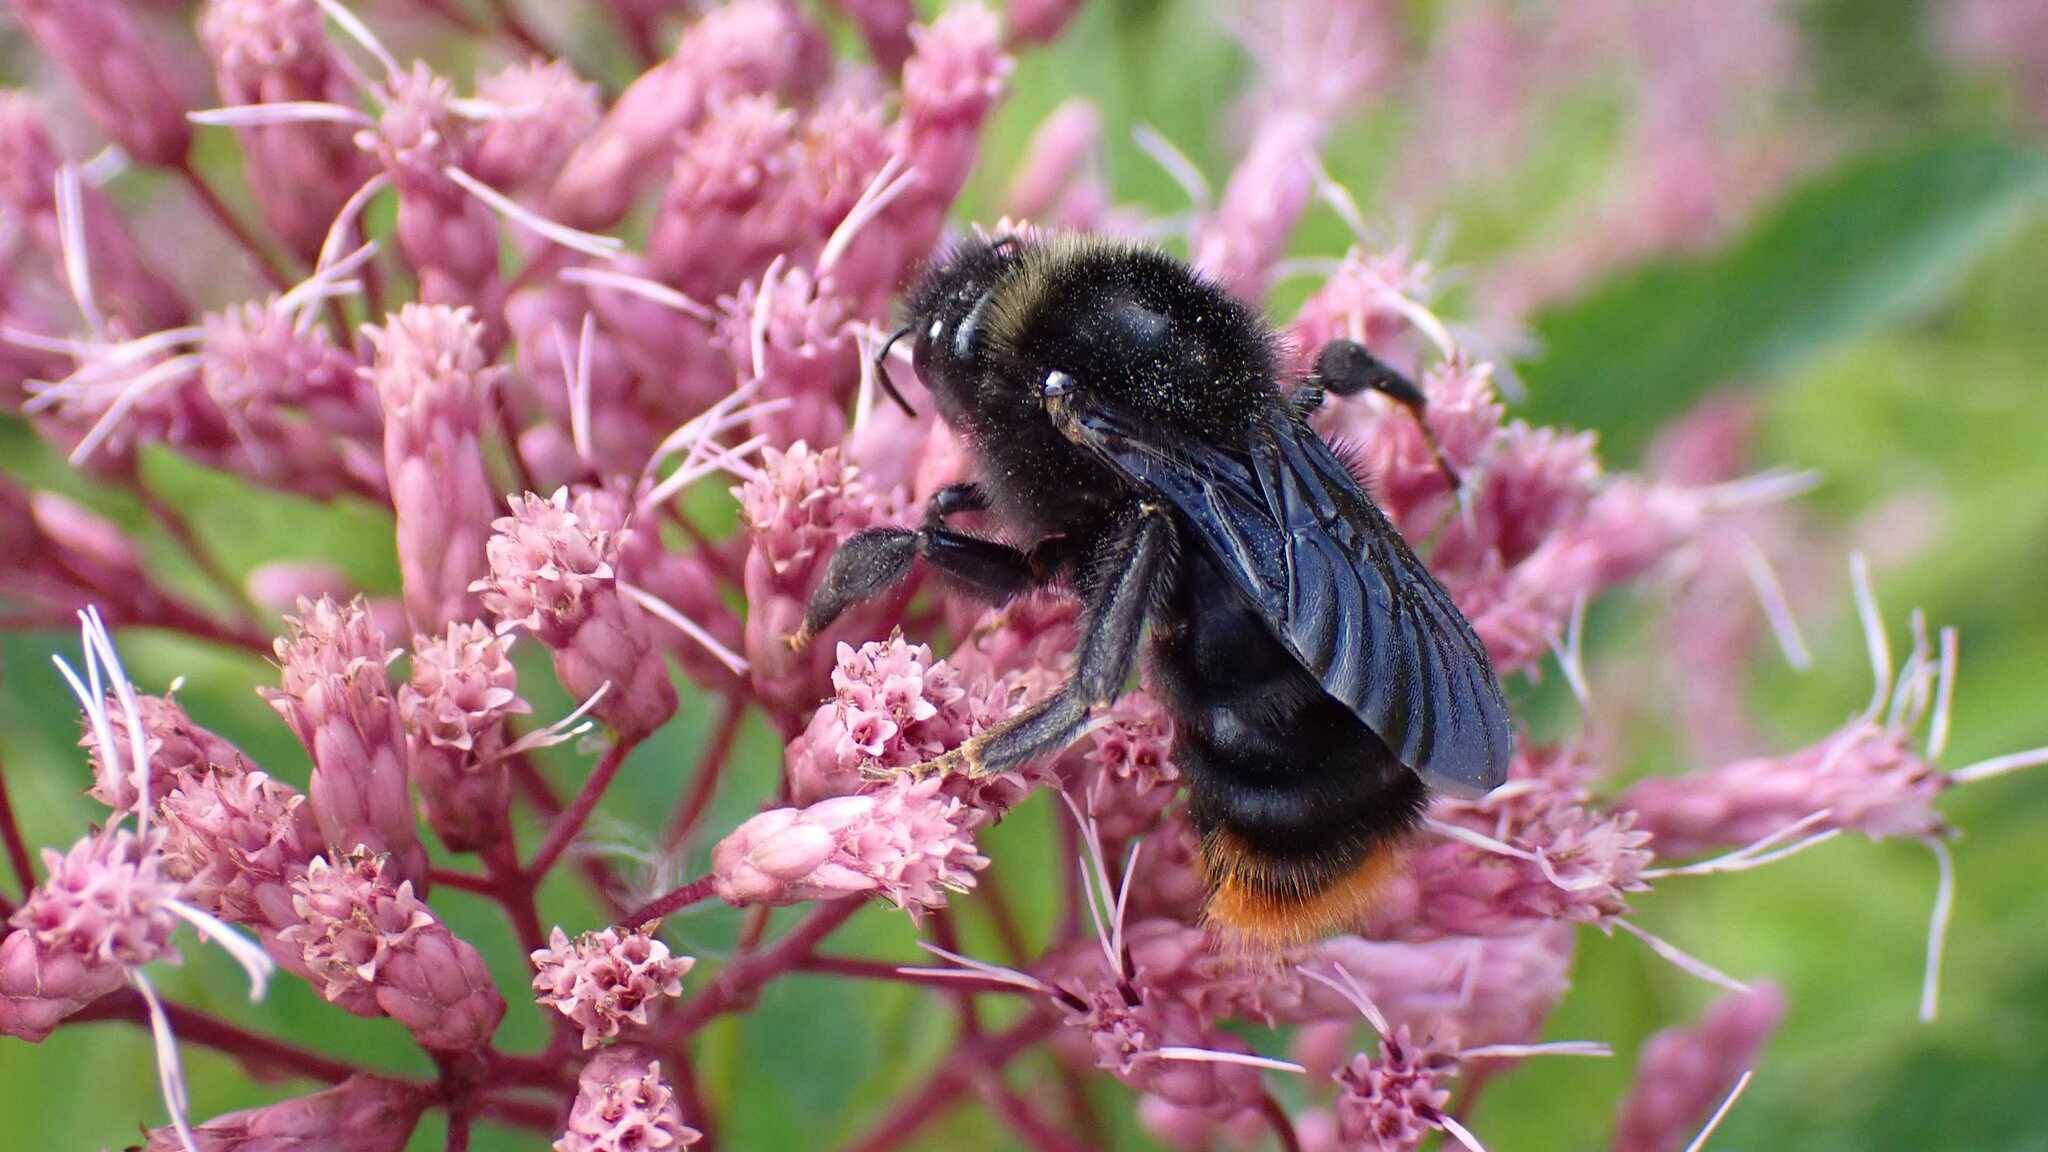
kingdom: Animalia
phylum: Arthropoda
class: Insecta
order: Hymenoptera
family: Apidae
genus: Bombus
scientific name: Bombus rupestris
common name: Hill cuckoo-bee
